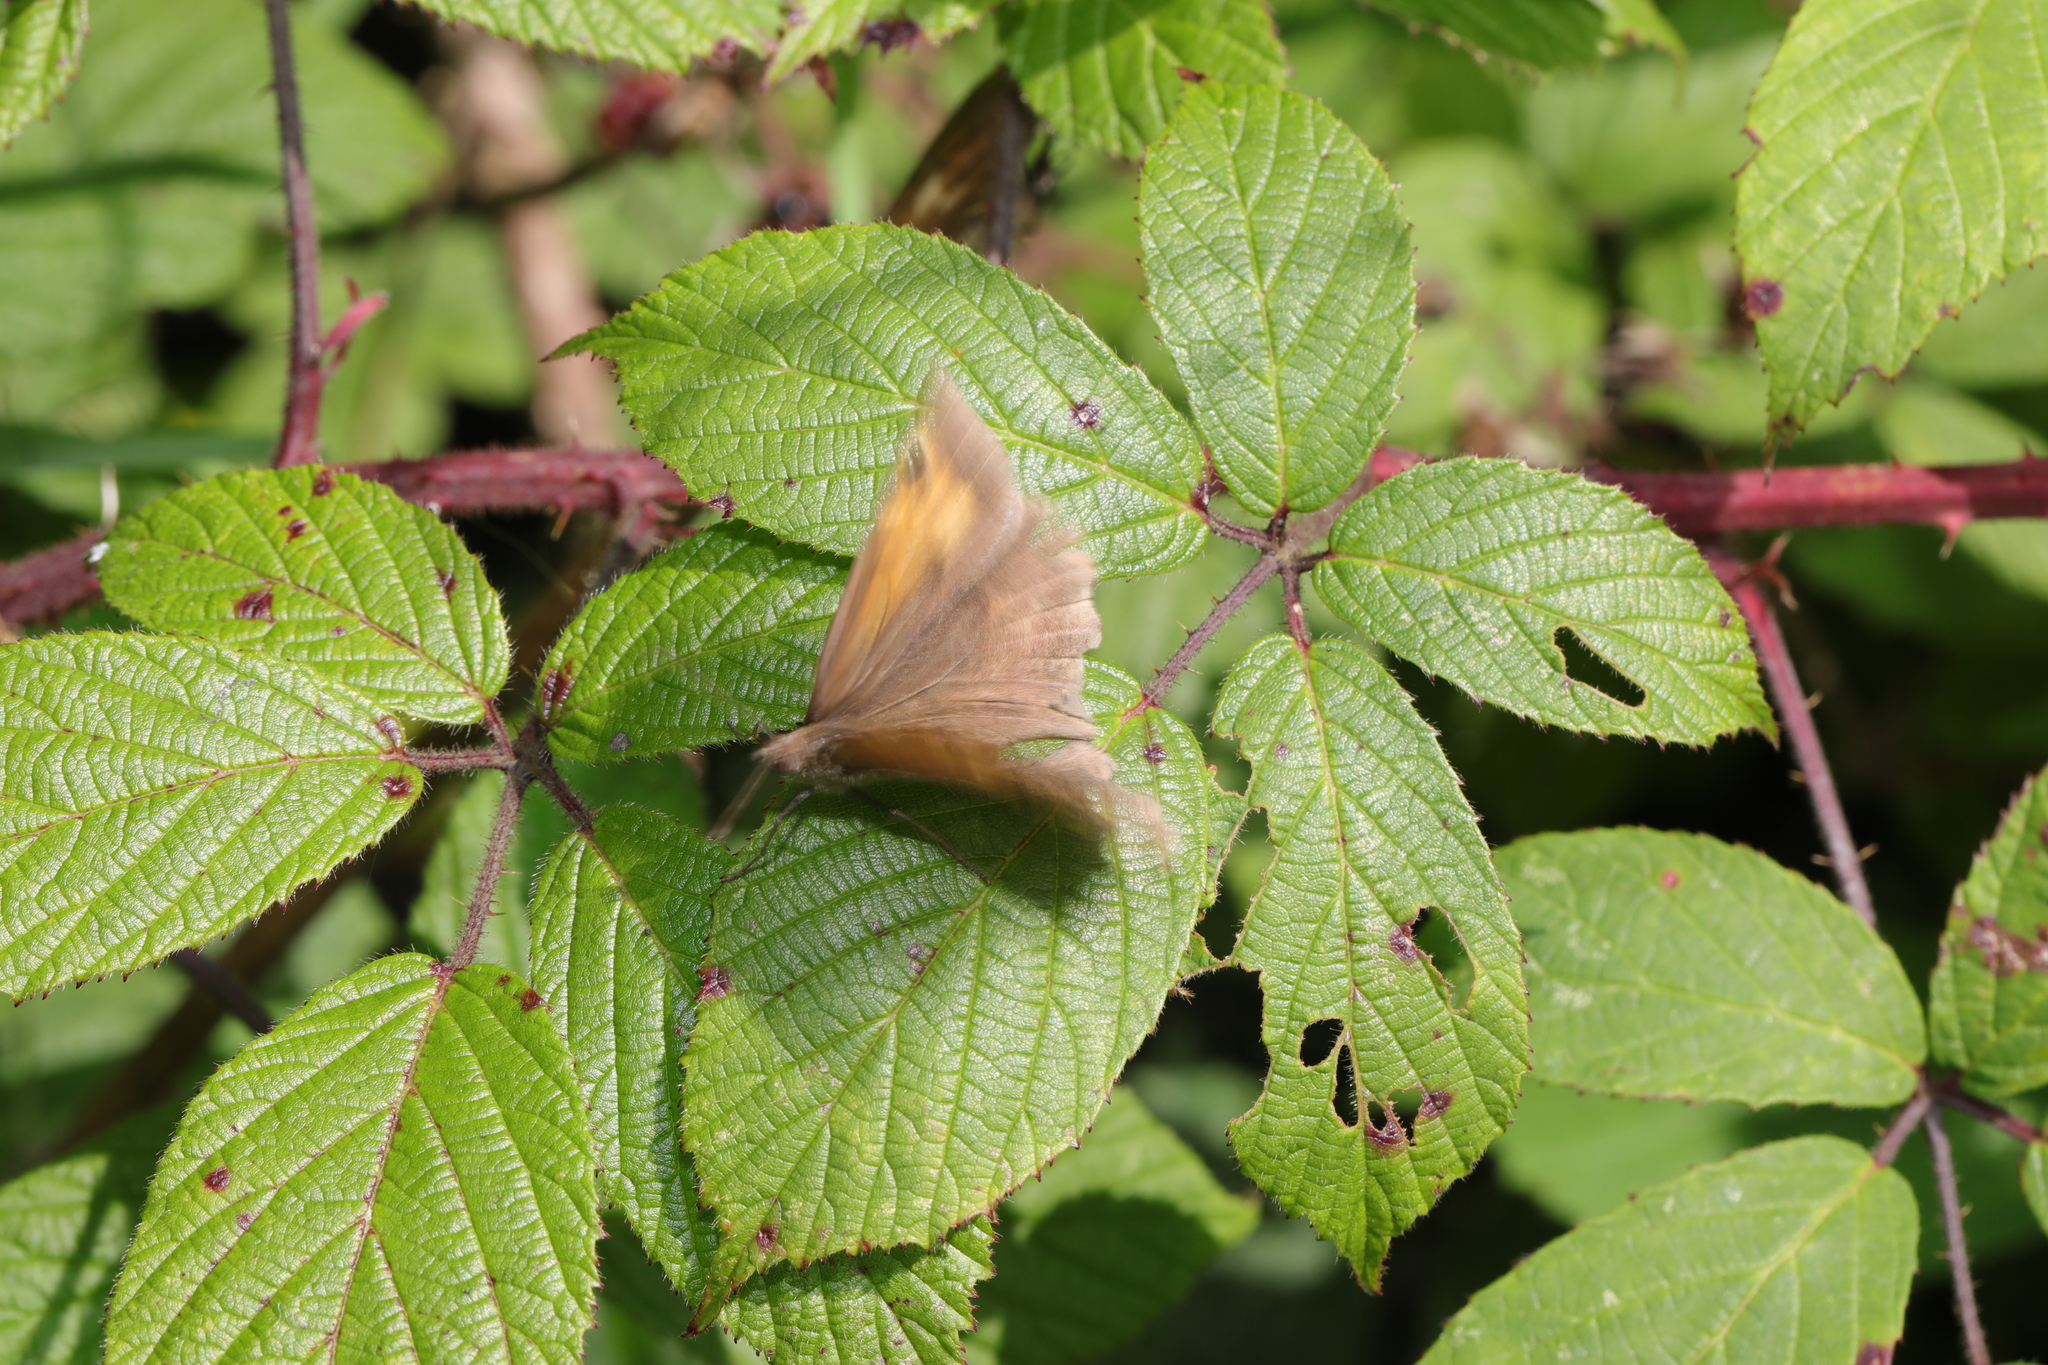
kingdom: Animalia
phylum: Arthropoda
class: Insecta
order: Lepidoptera
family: Nymphalidae
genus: Maniola
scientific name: Maniola jurtina
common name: Meadow brown
